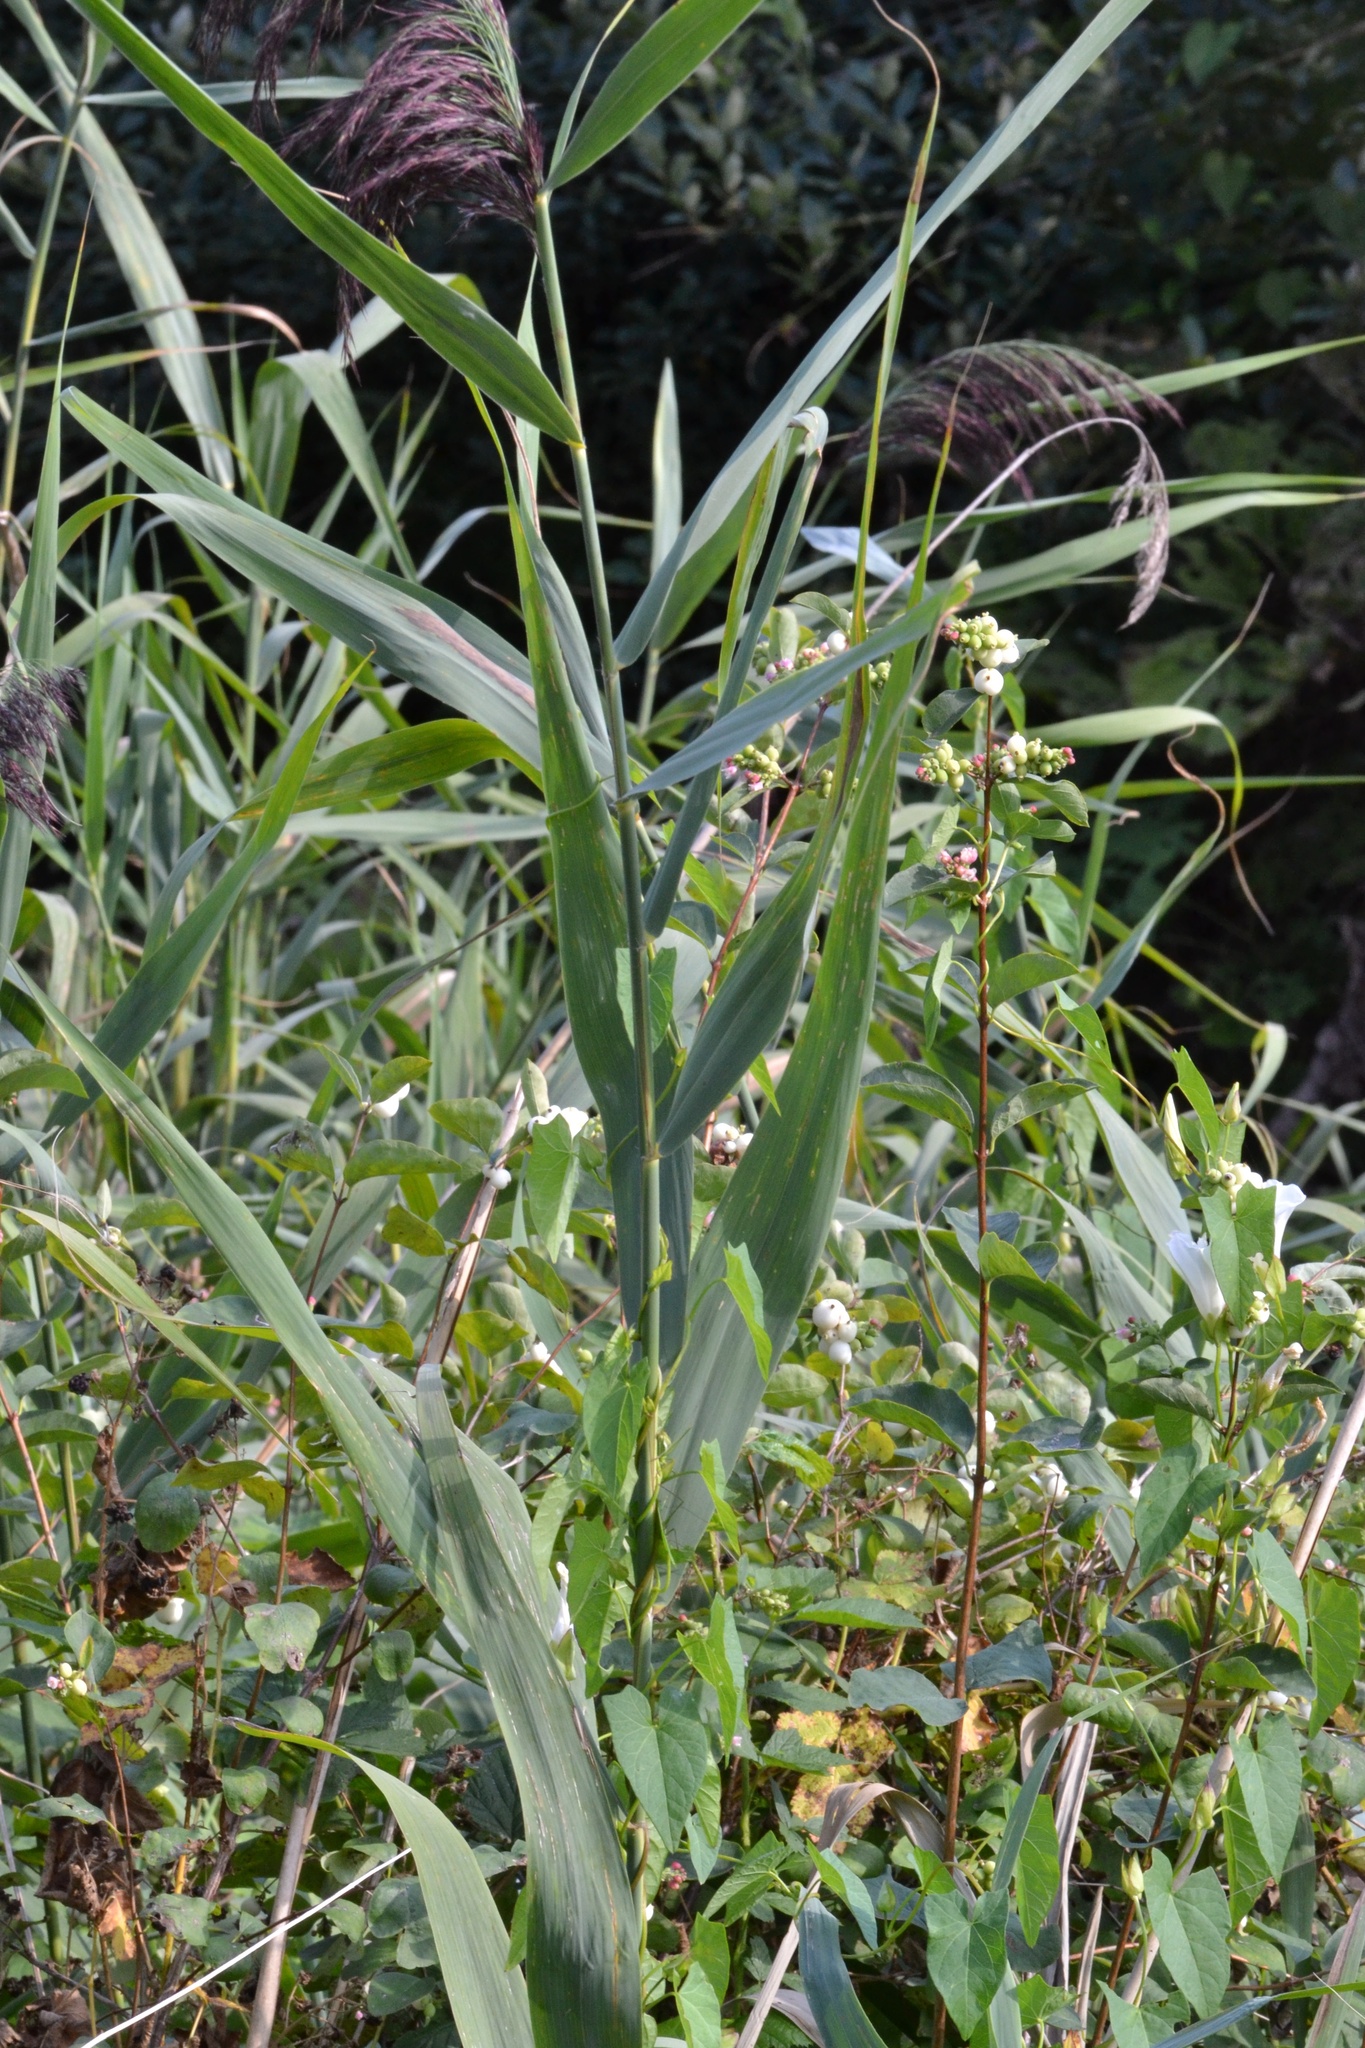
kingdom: Plantae
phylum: Tracheophyta
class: Liliopsida
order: Poales
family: Poaceae
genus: Phragmites
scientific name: Phragmites australis
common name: Common reed
